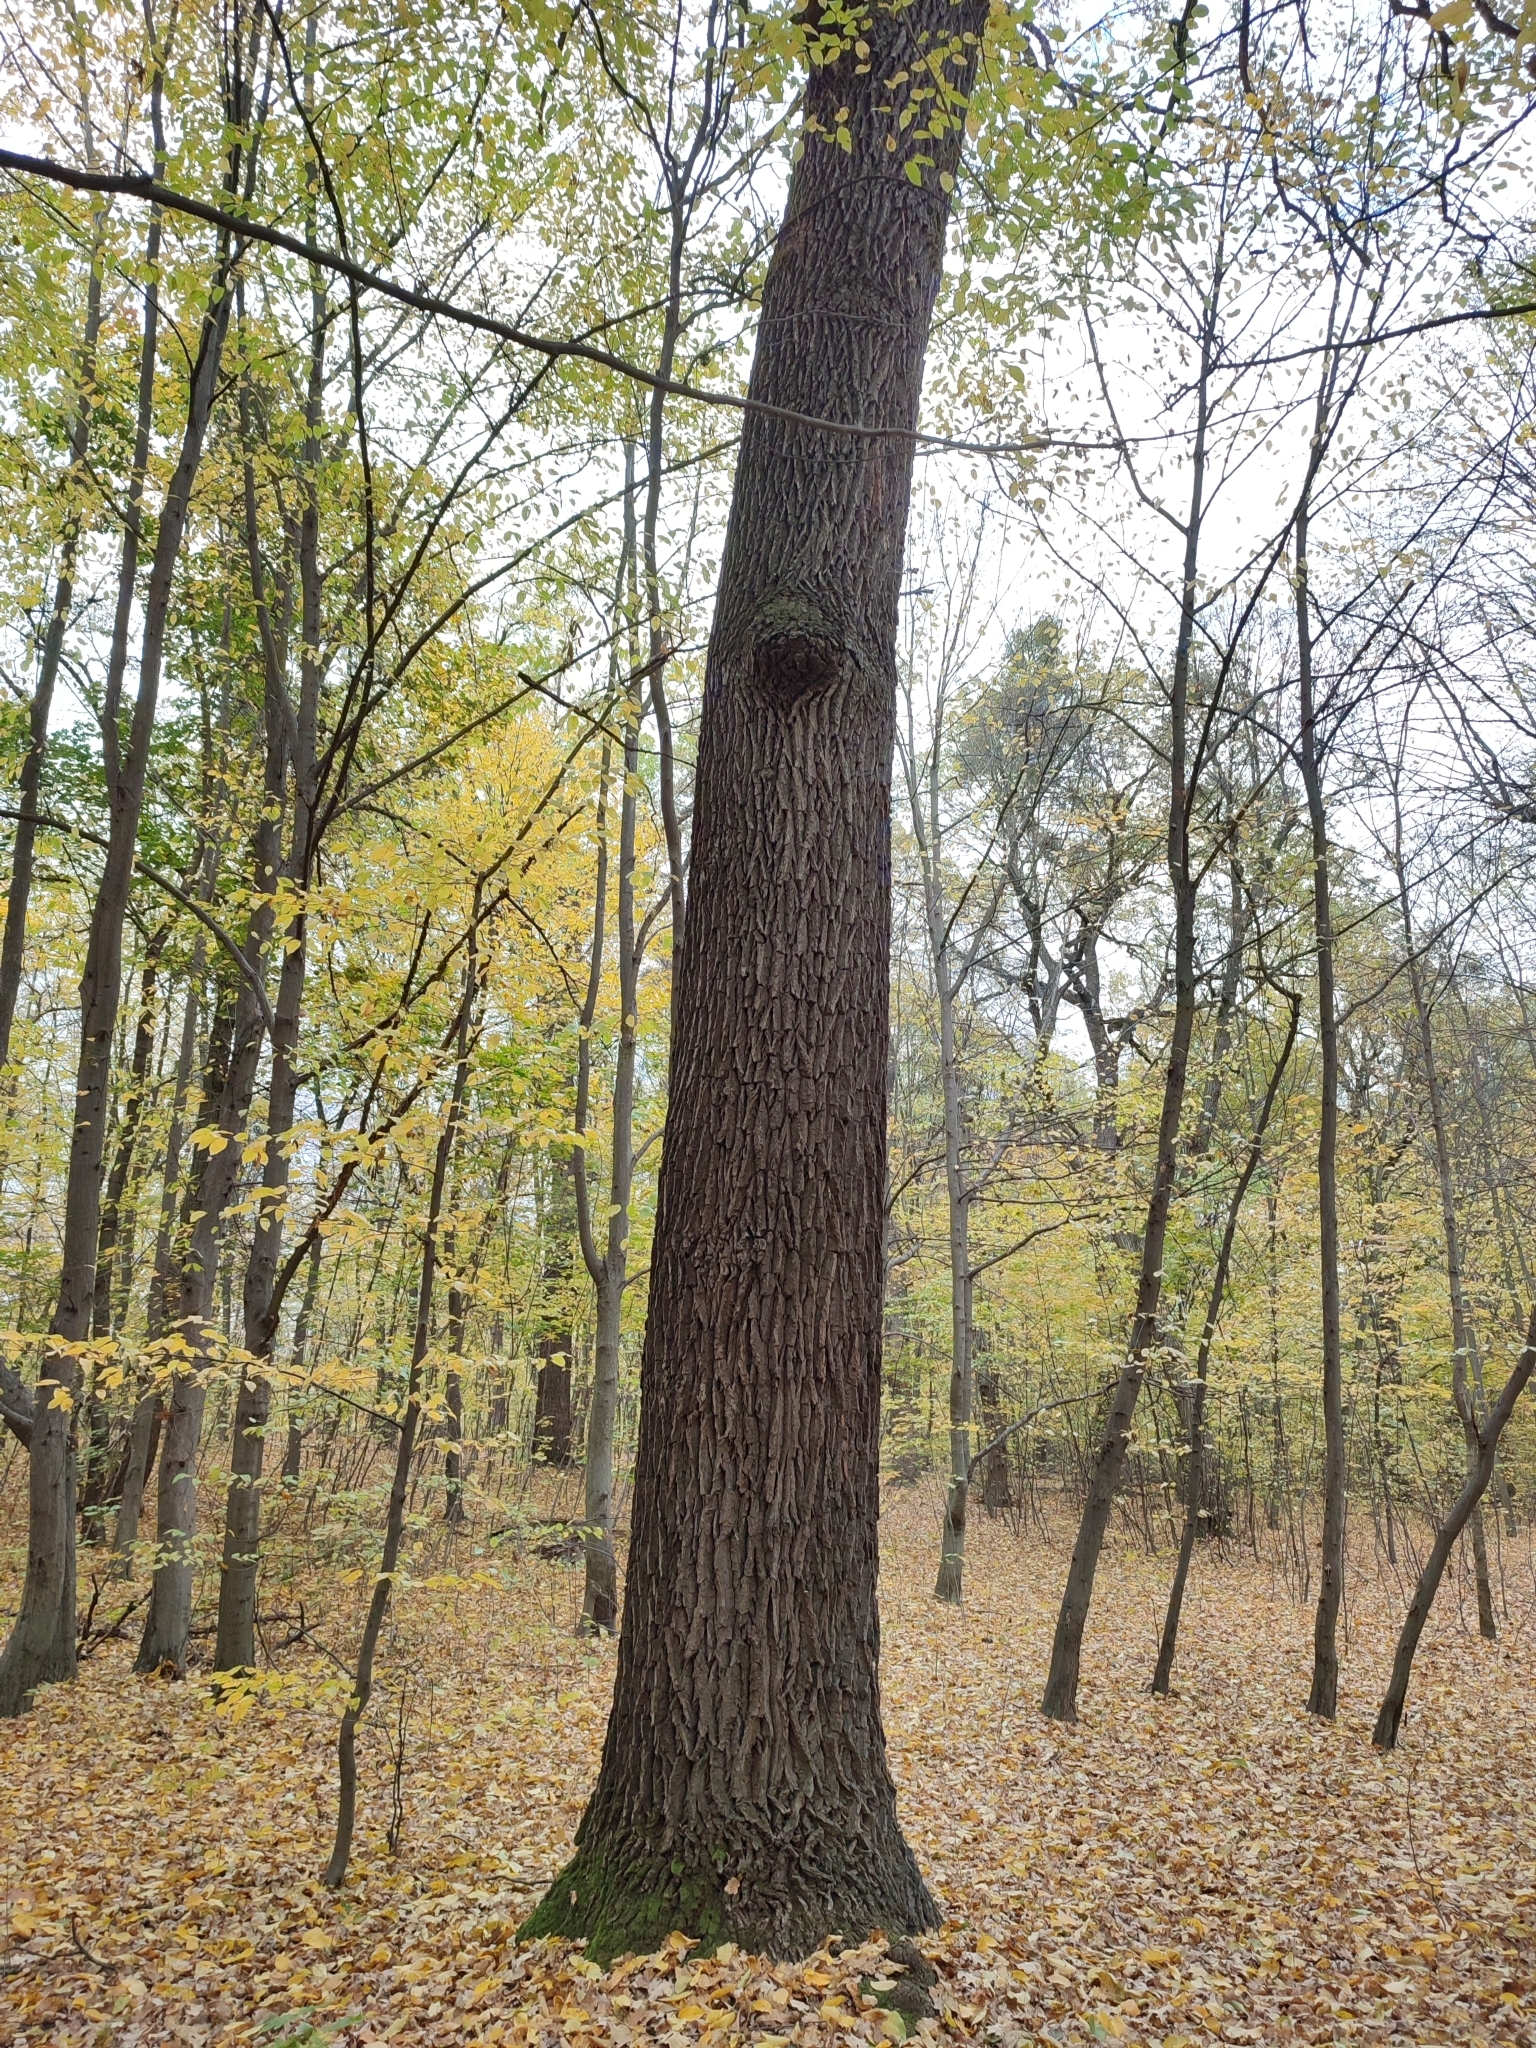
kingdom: Plantae
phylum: Tracheophyta
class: Magnoliopsida
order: Fagales
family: Fagaceae
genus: Quercus
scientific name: Quercus robur
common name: Pedunculate oak
